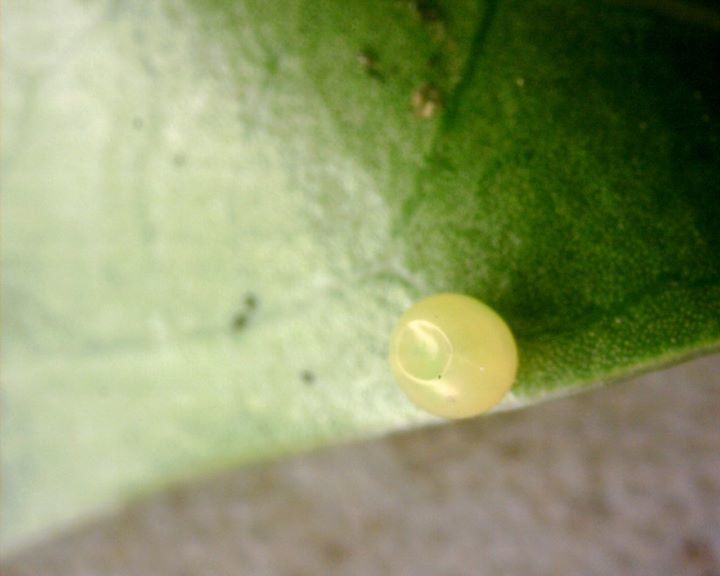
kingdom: Animalia
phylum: Arthropoda
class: Insecta
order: Lepidoptera
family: Sphingidae
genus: Macroglossum
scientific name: Macroglossum sitiene
